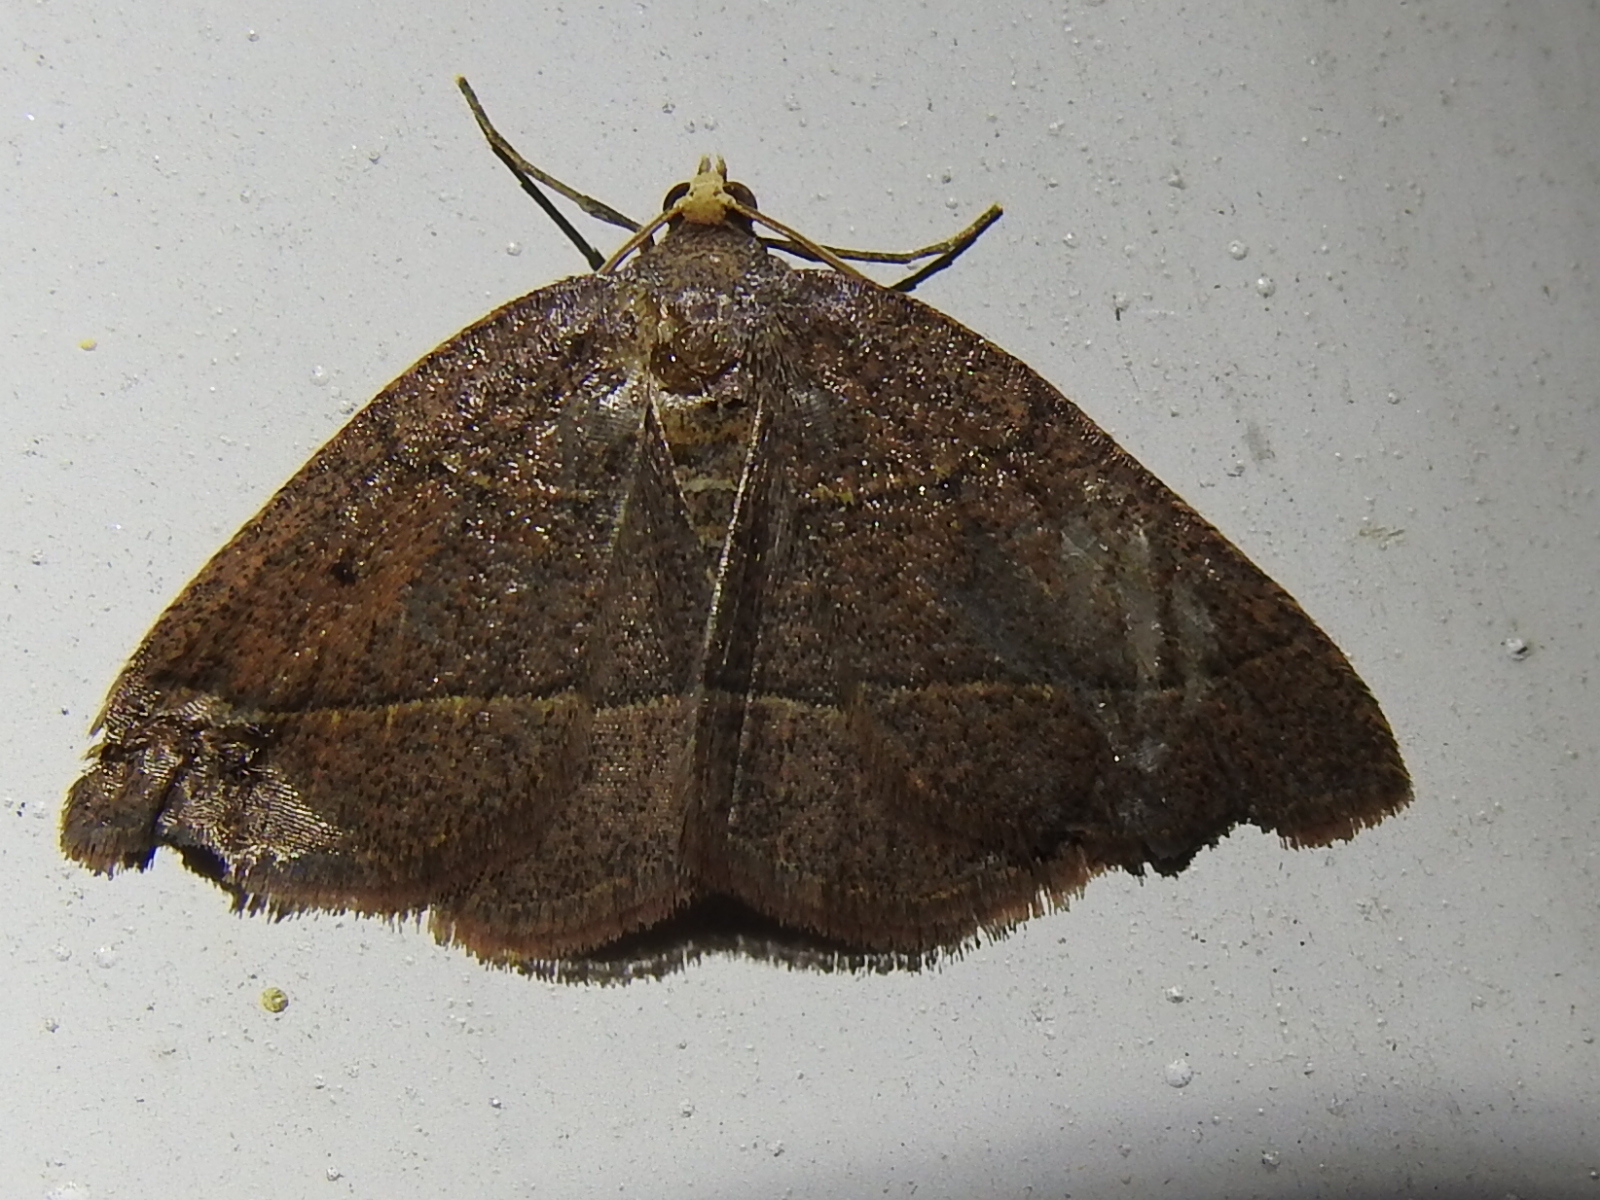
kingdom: Animalia
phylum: Arthropoda
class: Insecta
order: Lepidoptera
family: Geometridae
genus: Episemasia
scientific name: Episemasia cervinaria
